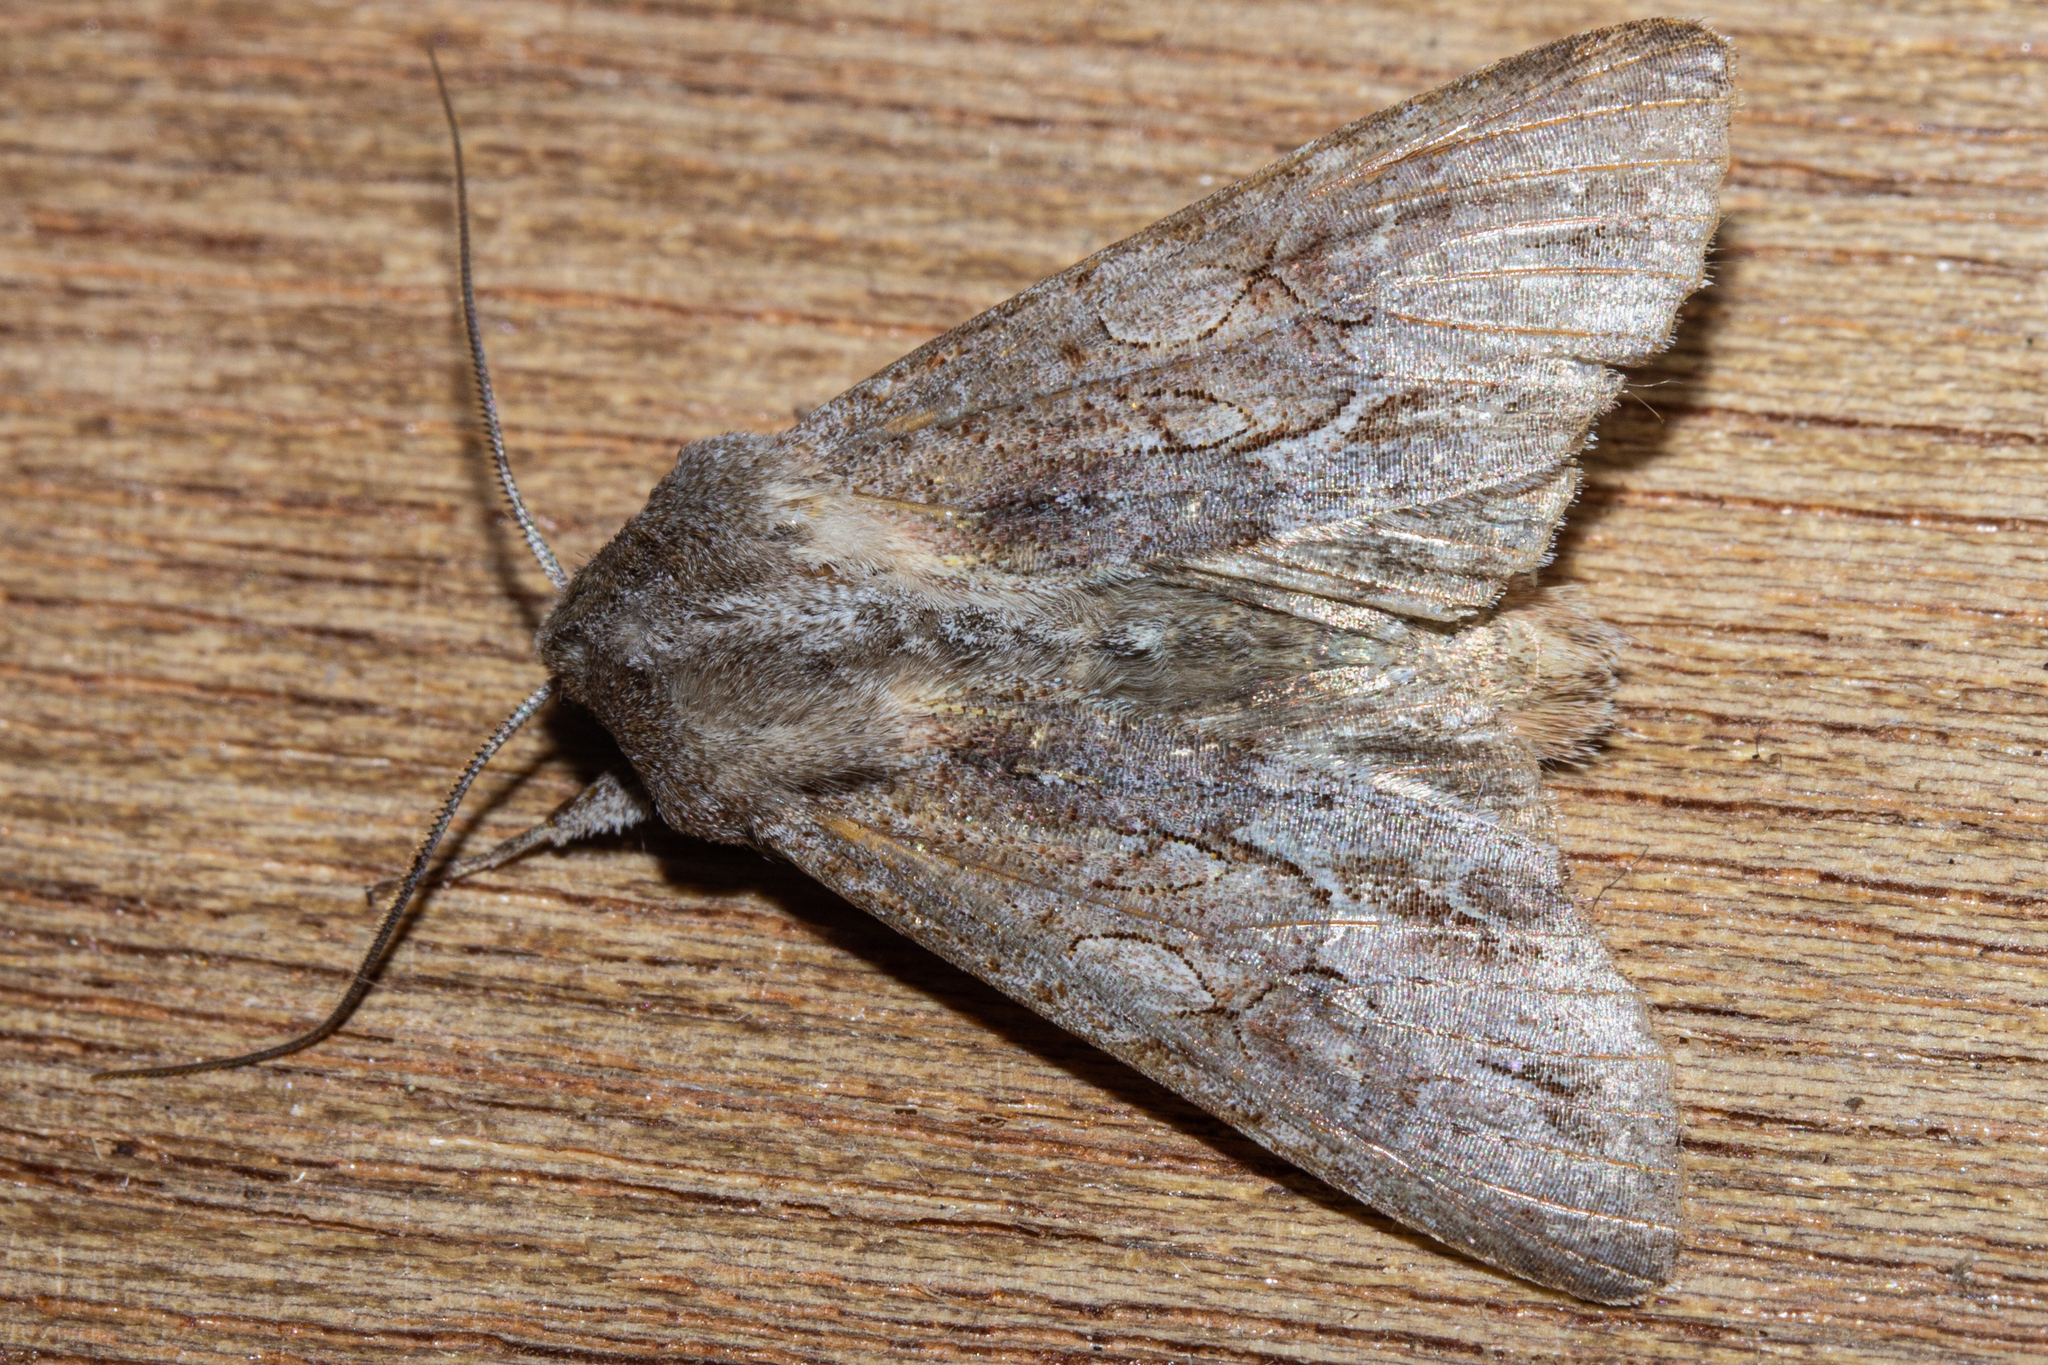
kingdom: Animalia
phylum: Arthropoda
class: Insecta
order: Lepidoptera
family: Noctuidae
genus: Ichneutica
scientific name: Ichneutica
